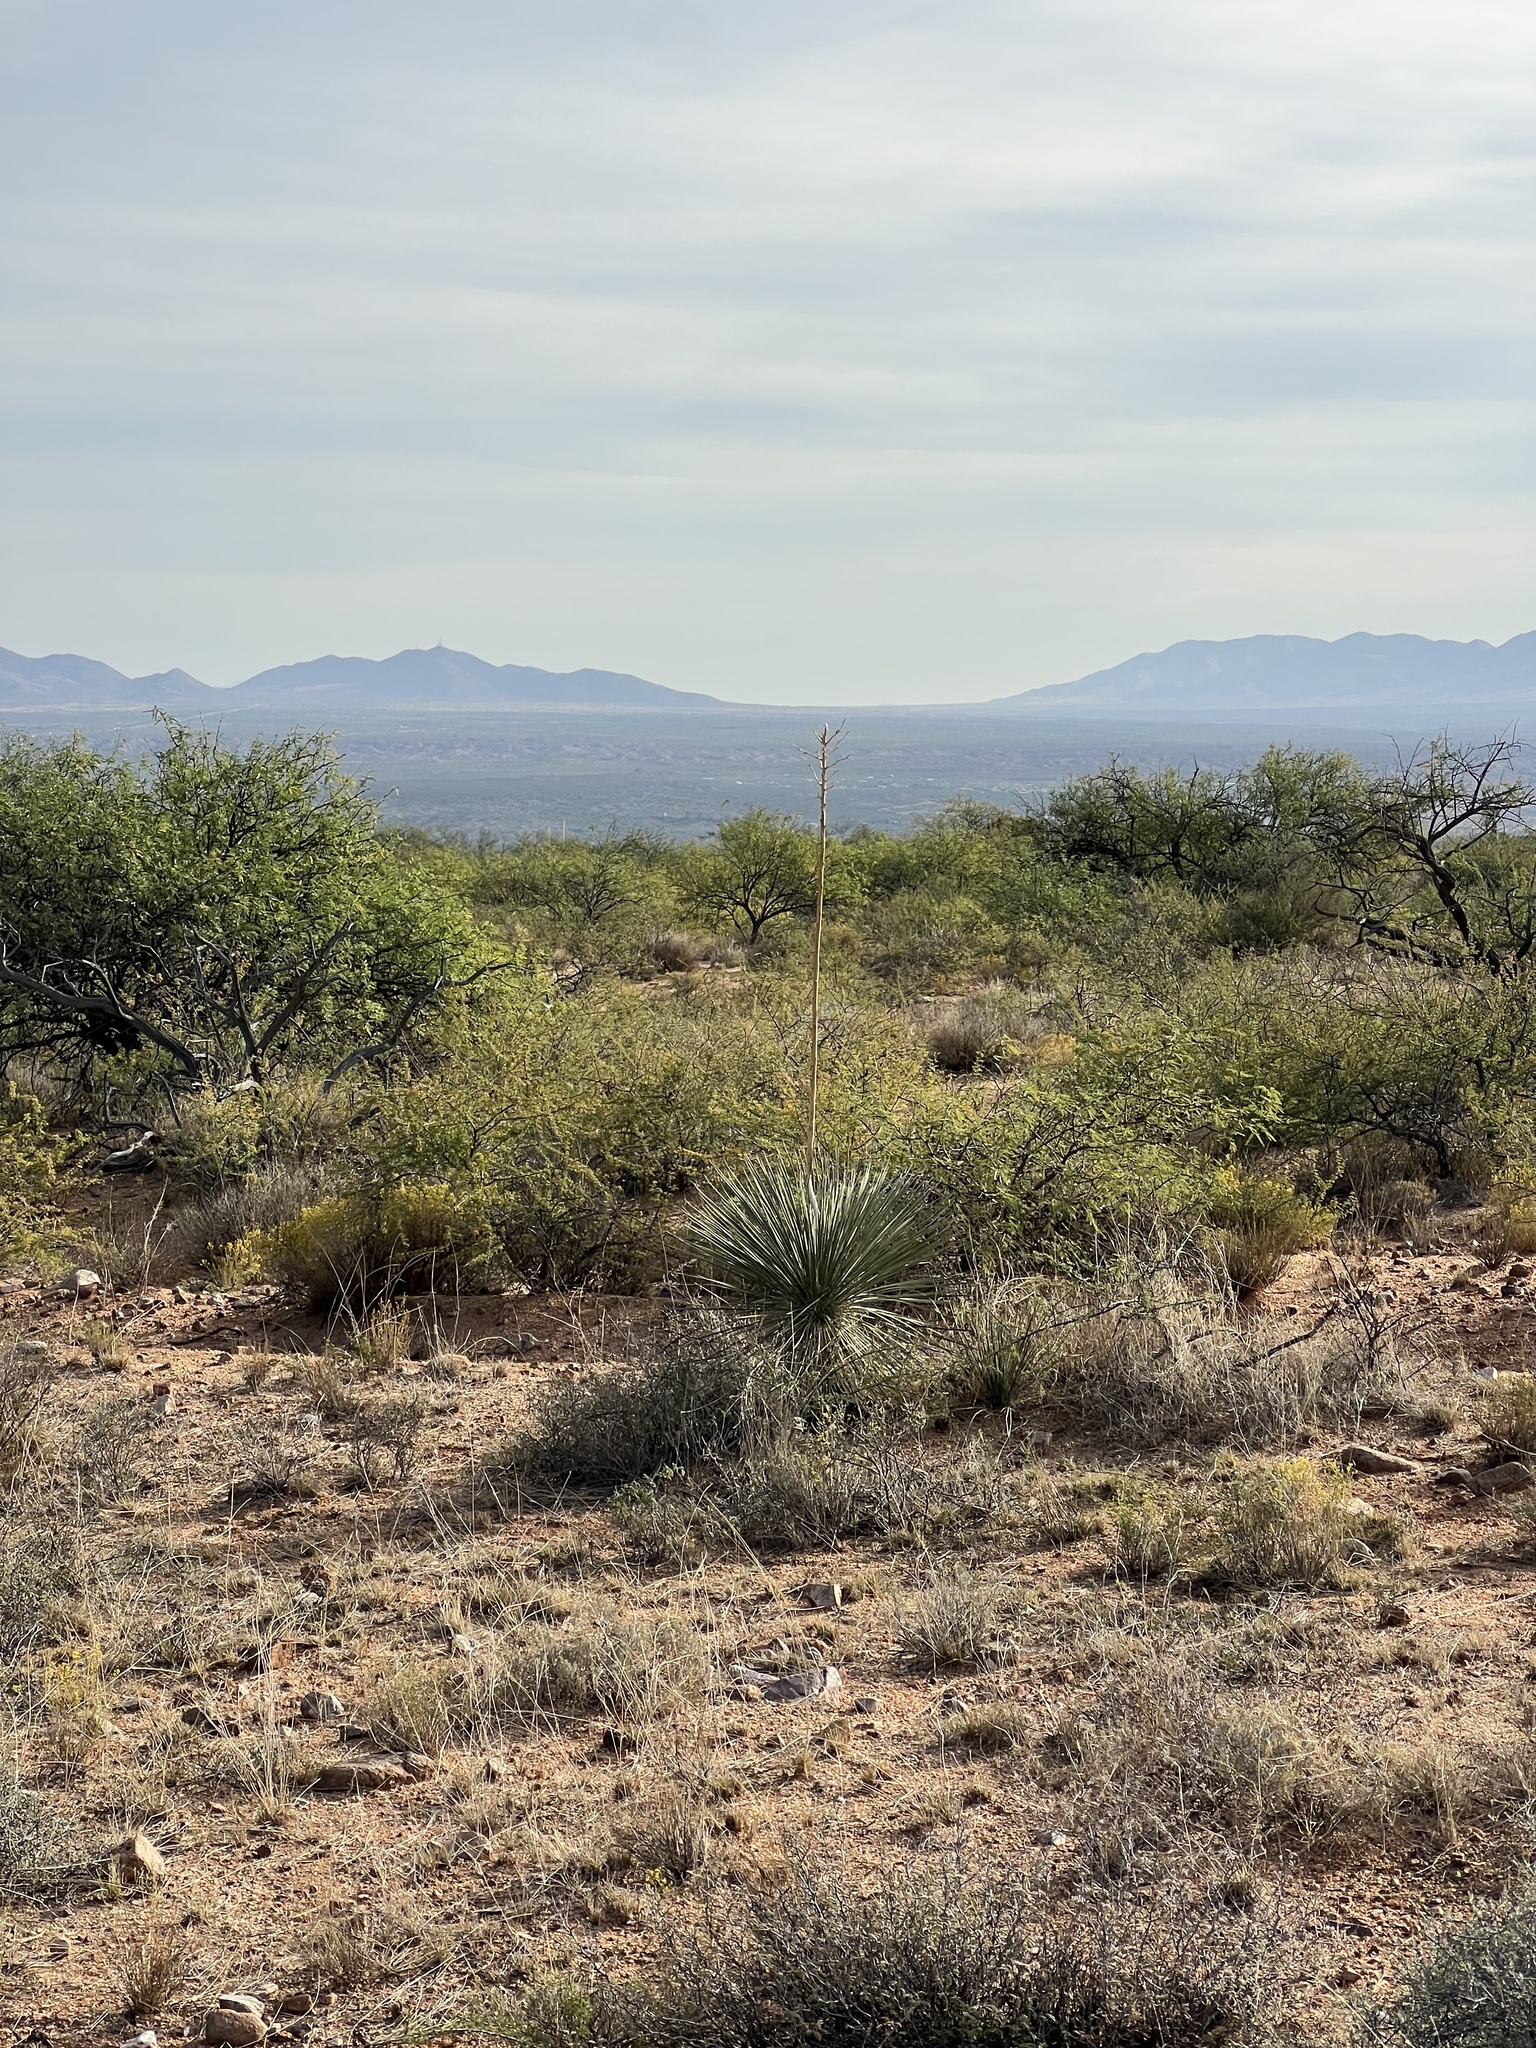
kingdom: Plantae
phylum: Tracheophyta
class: Liliopsida
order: Asparagales
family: Asparagaceae
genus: Yucca
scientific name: Yucca elata
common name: Palmella
